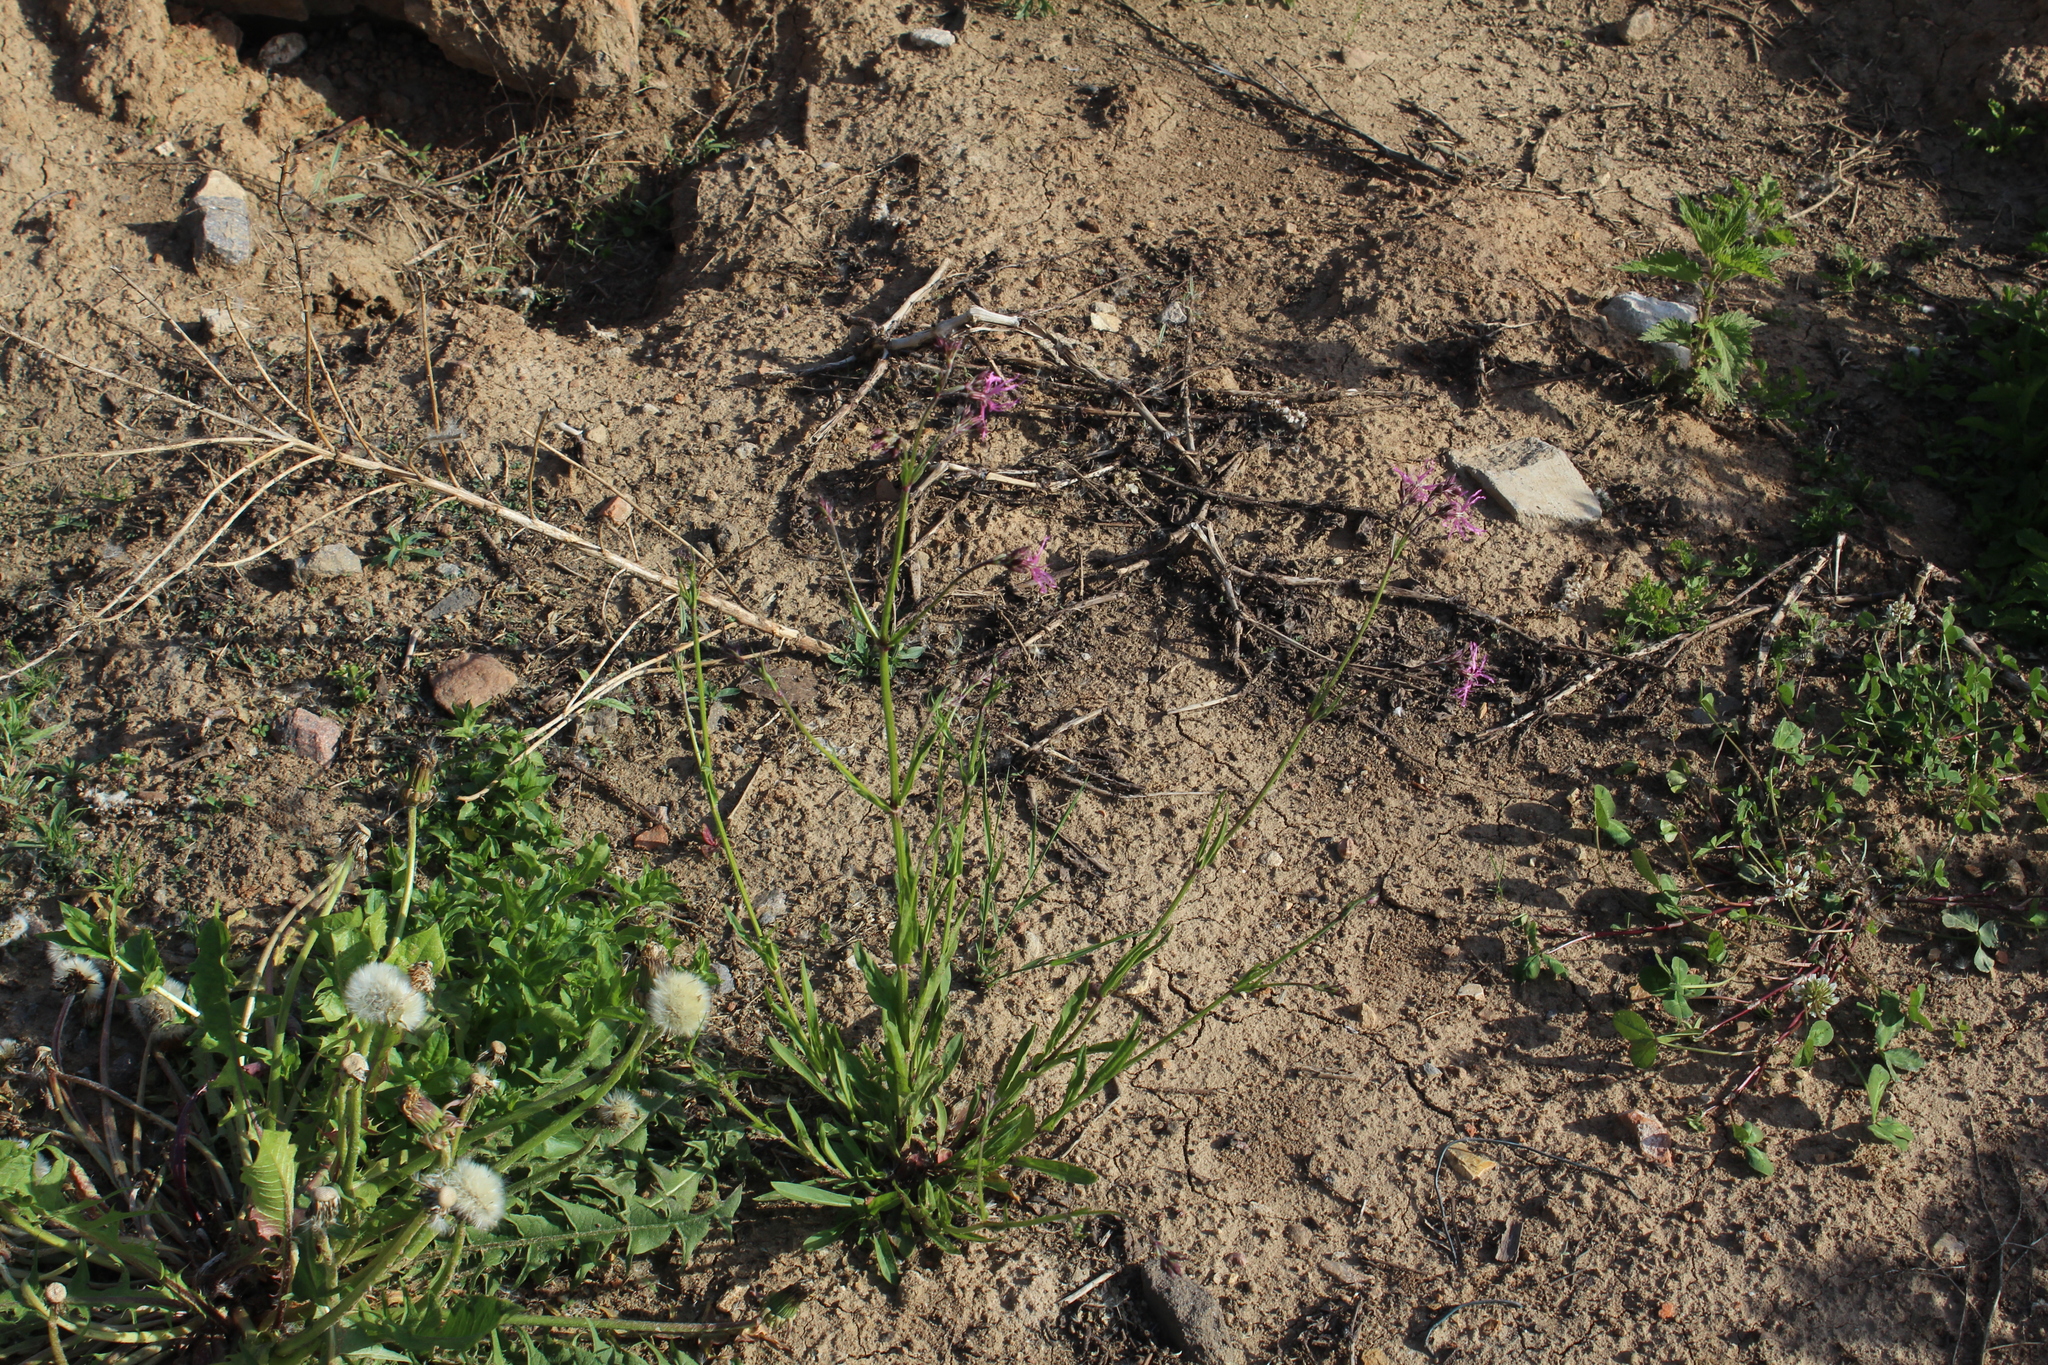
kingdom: Plantae
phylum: Tracheophyta
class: Magnoliopsida
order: Caryophyllales
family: Caryophyllaceae
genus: Silene
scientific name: Silene flos-cuculi
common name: Ragged-robin
